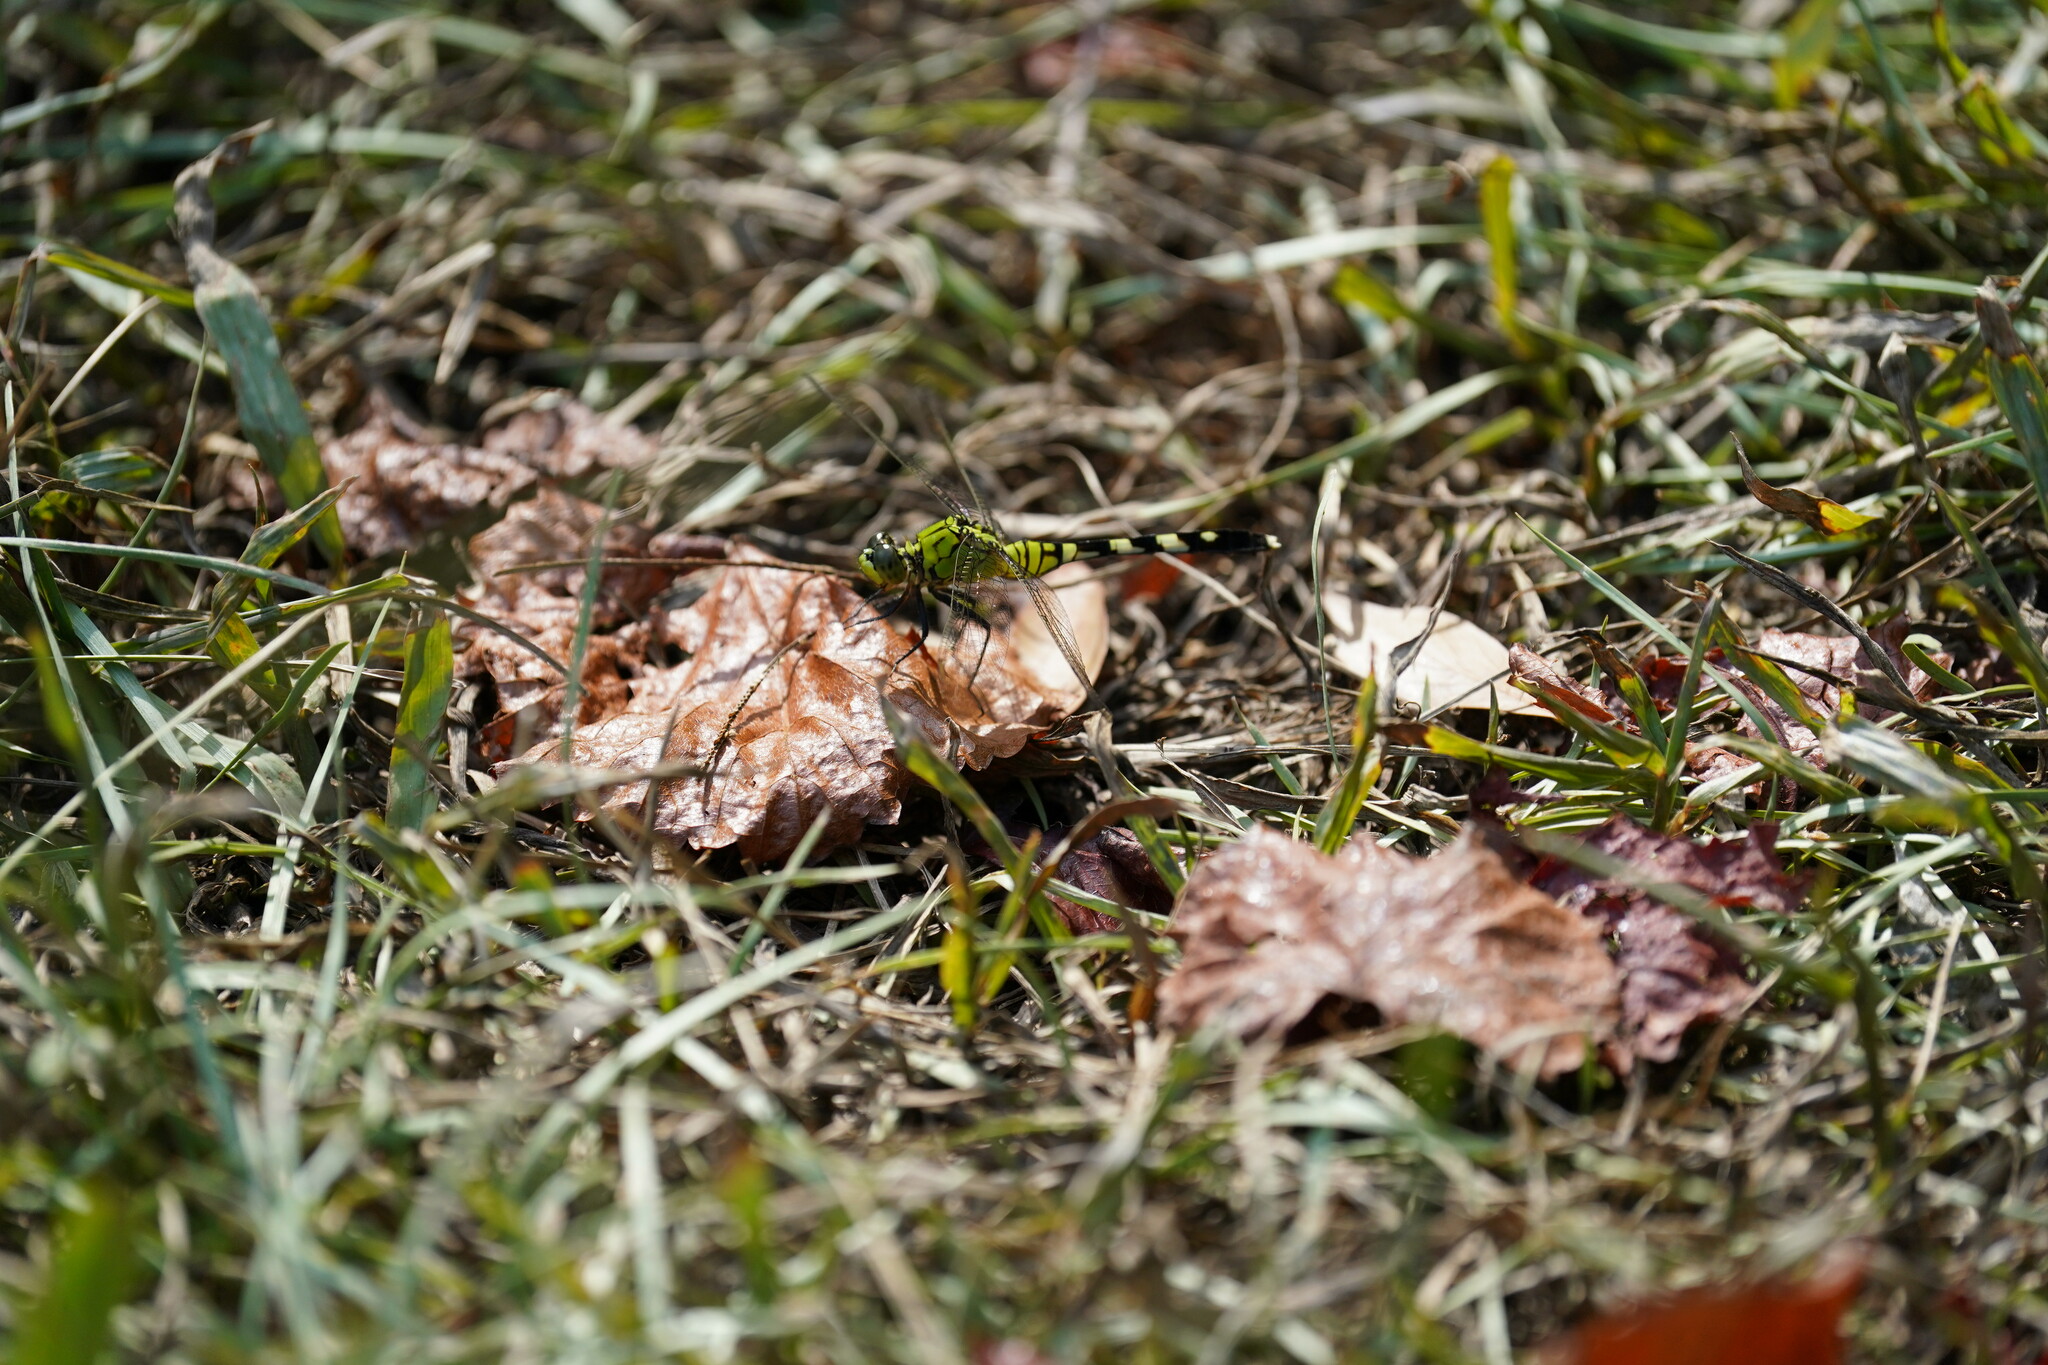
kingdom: Animalia
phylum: Arthropoda
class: Insecta
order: Odonata
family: Libellulidae
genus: Erythemis
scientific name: Erythemis simplicicollis
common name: Eastern pondhawk
